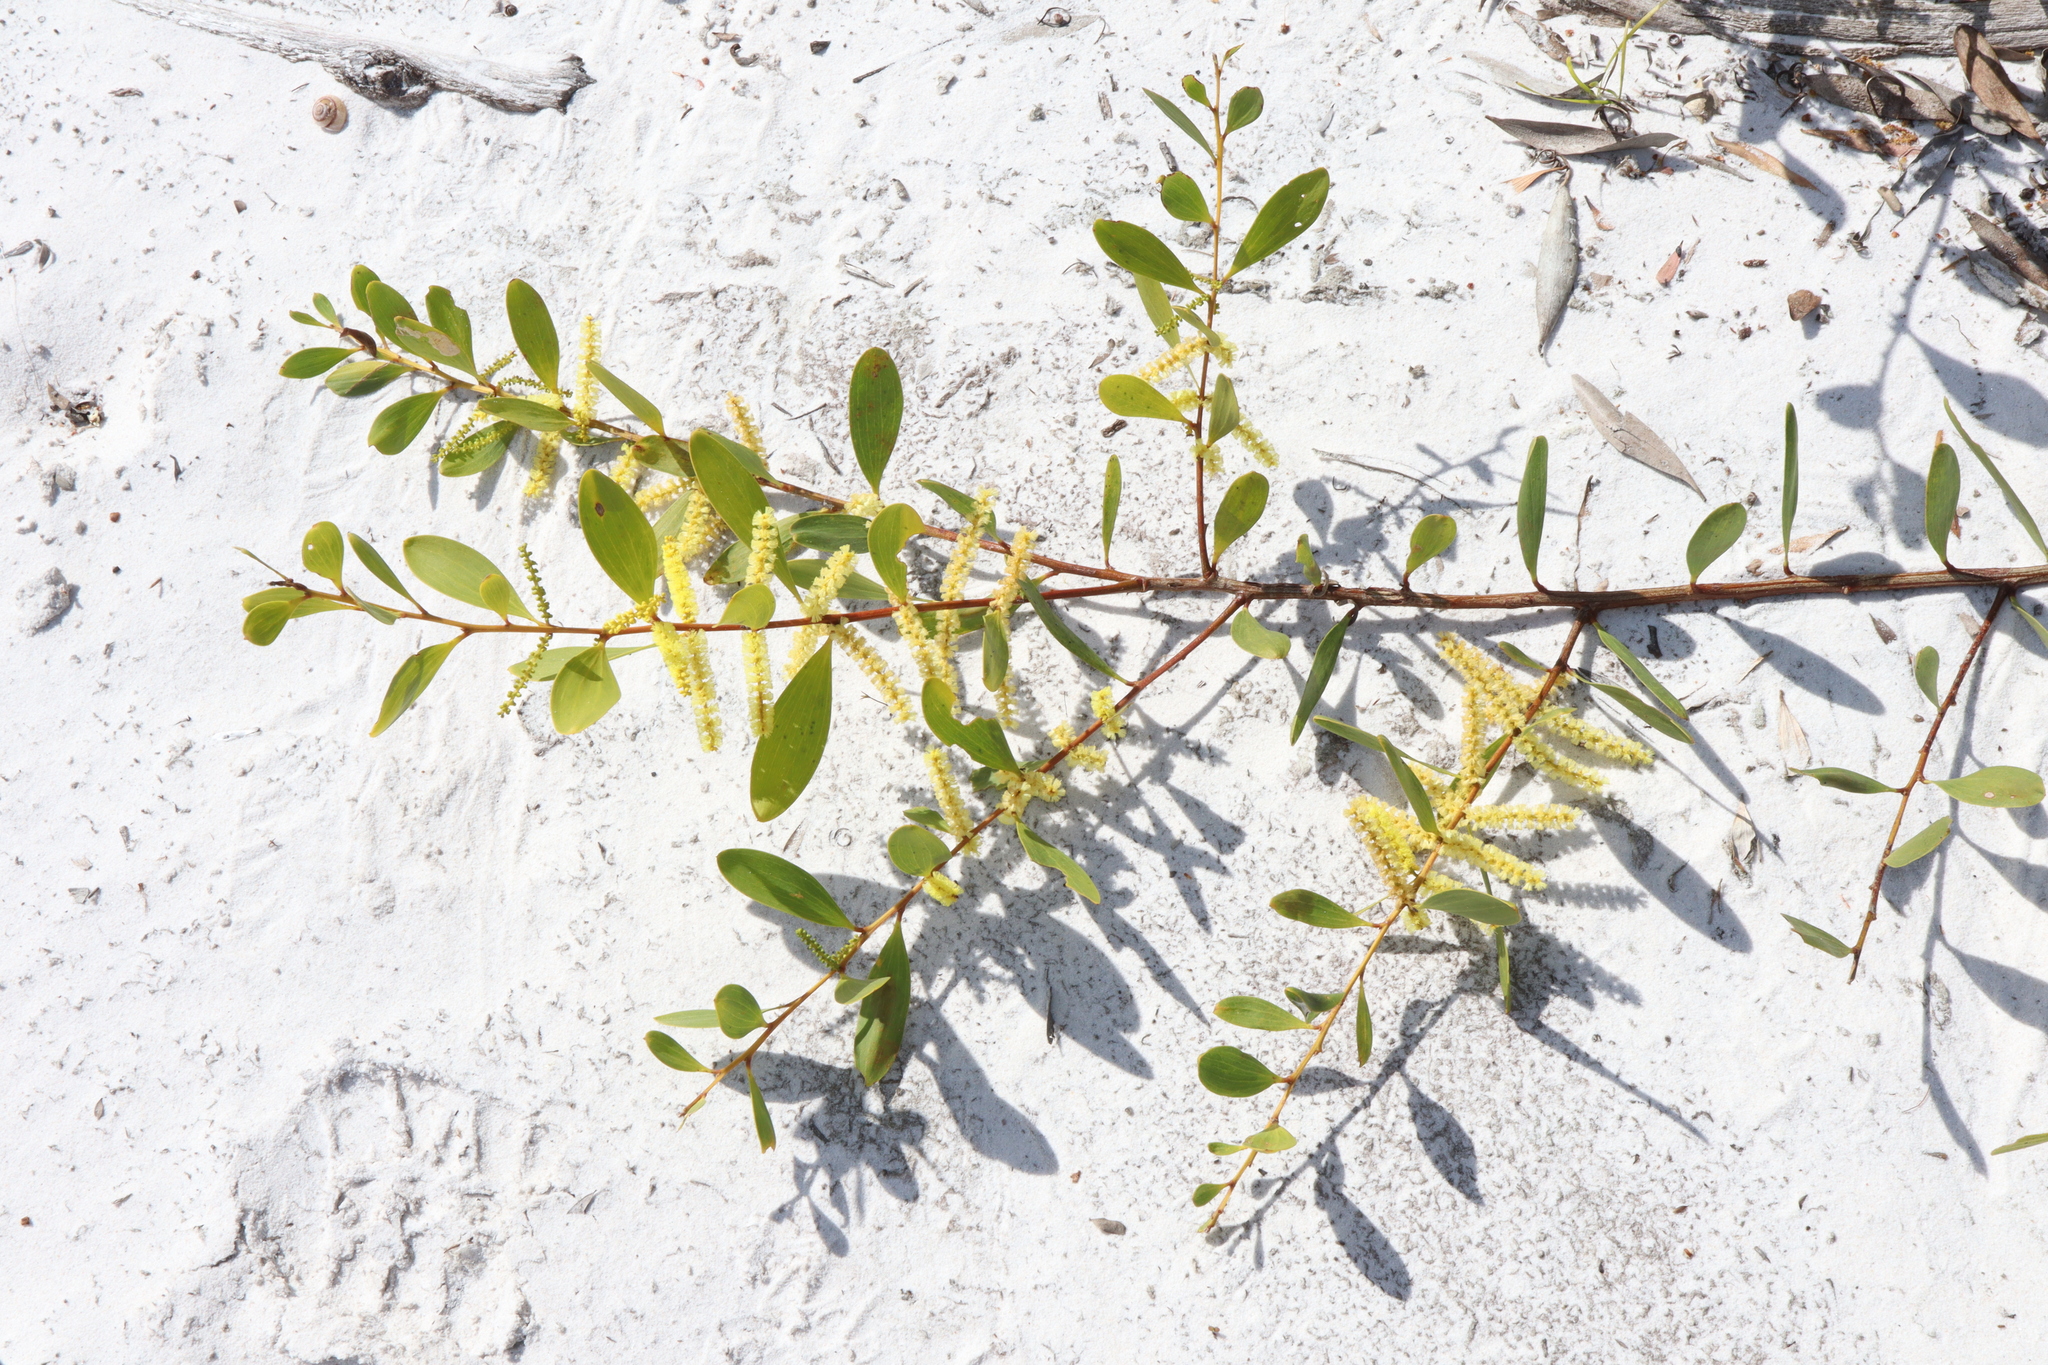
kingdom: Plantae
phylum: Tracheophyta
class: Magnoliopsida
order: Fabales
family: Fabaceae
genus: Acacia
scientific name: Acacia longifolia
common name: Sydney golden wattle
